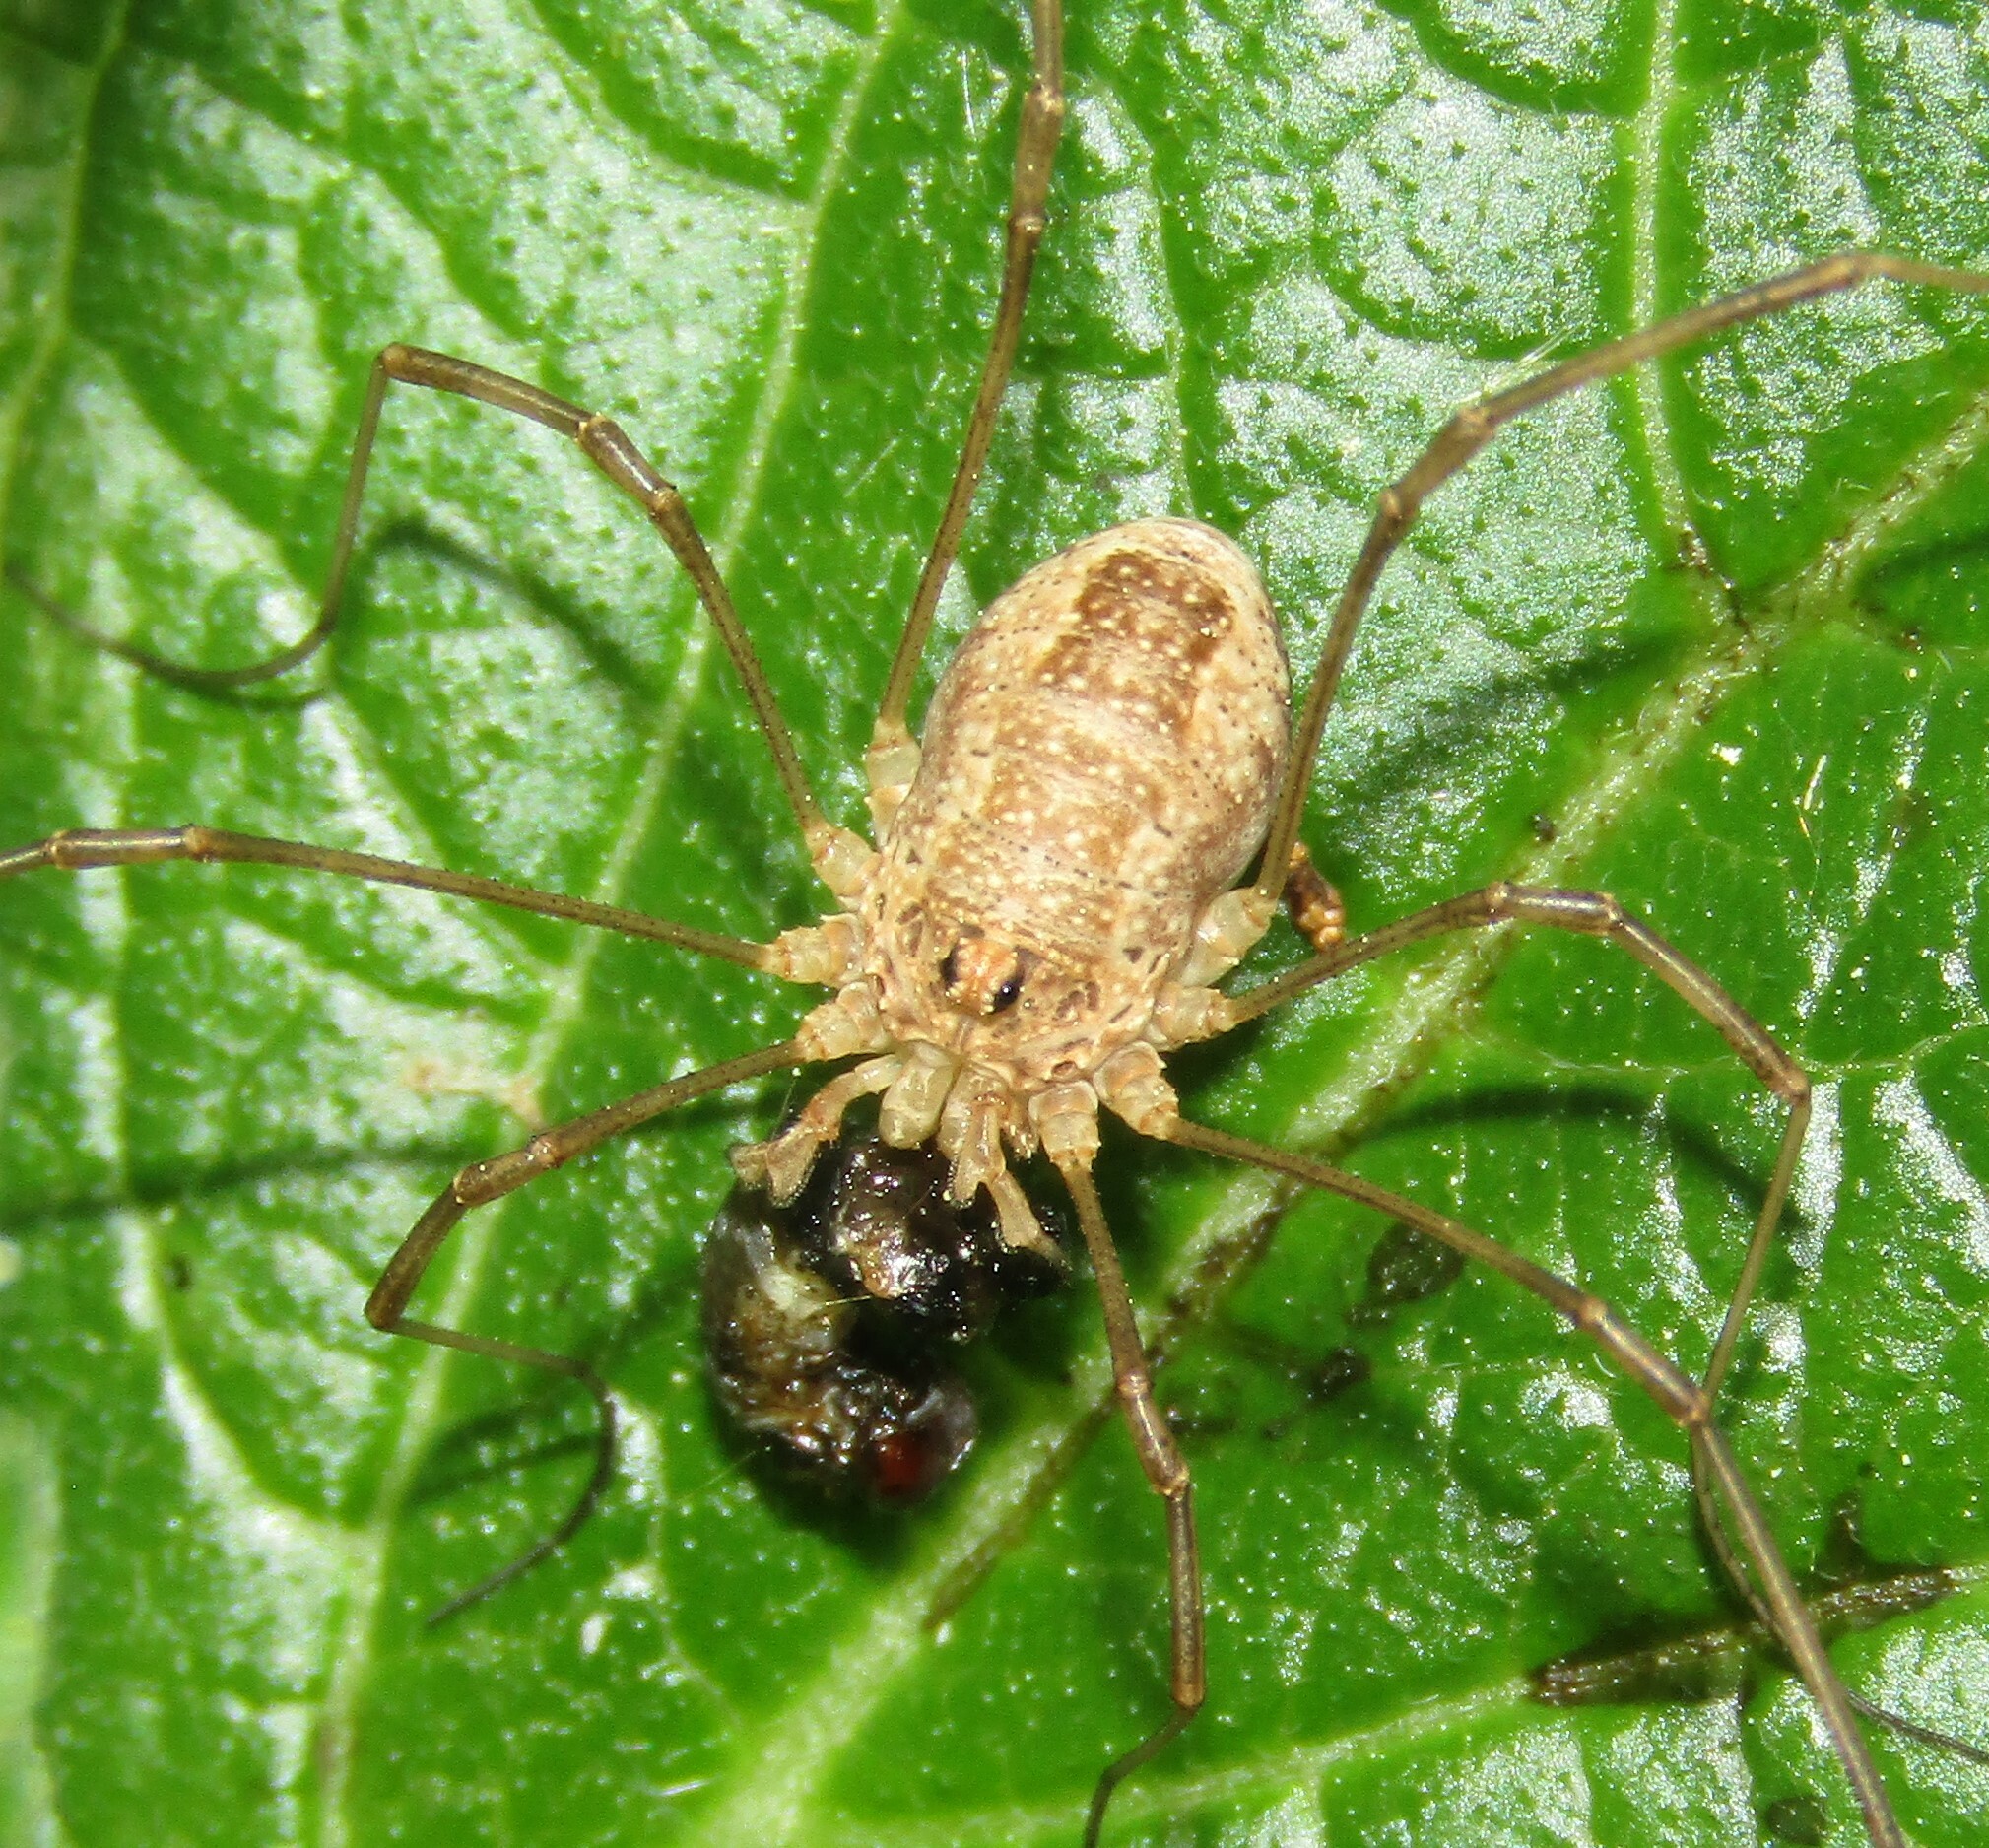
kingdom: Animalia
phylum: Arthropoda
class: Arachnida
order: Opiliones
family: Phalangiidae
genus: Rilaena
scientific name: Rilaena triangularis
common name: Spring harvestman
